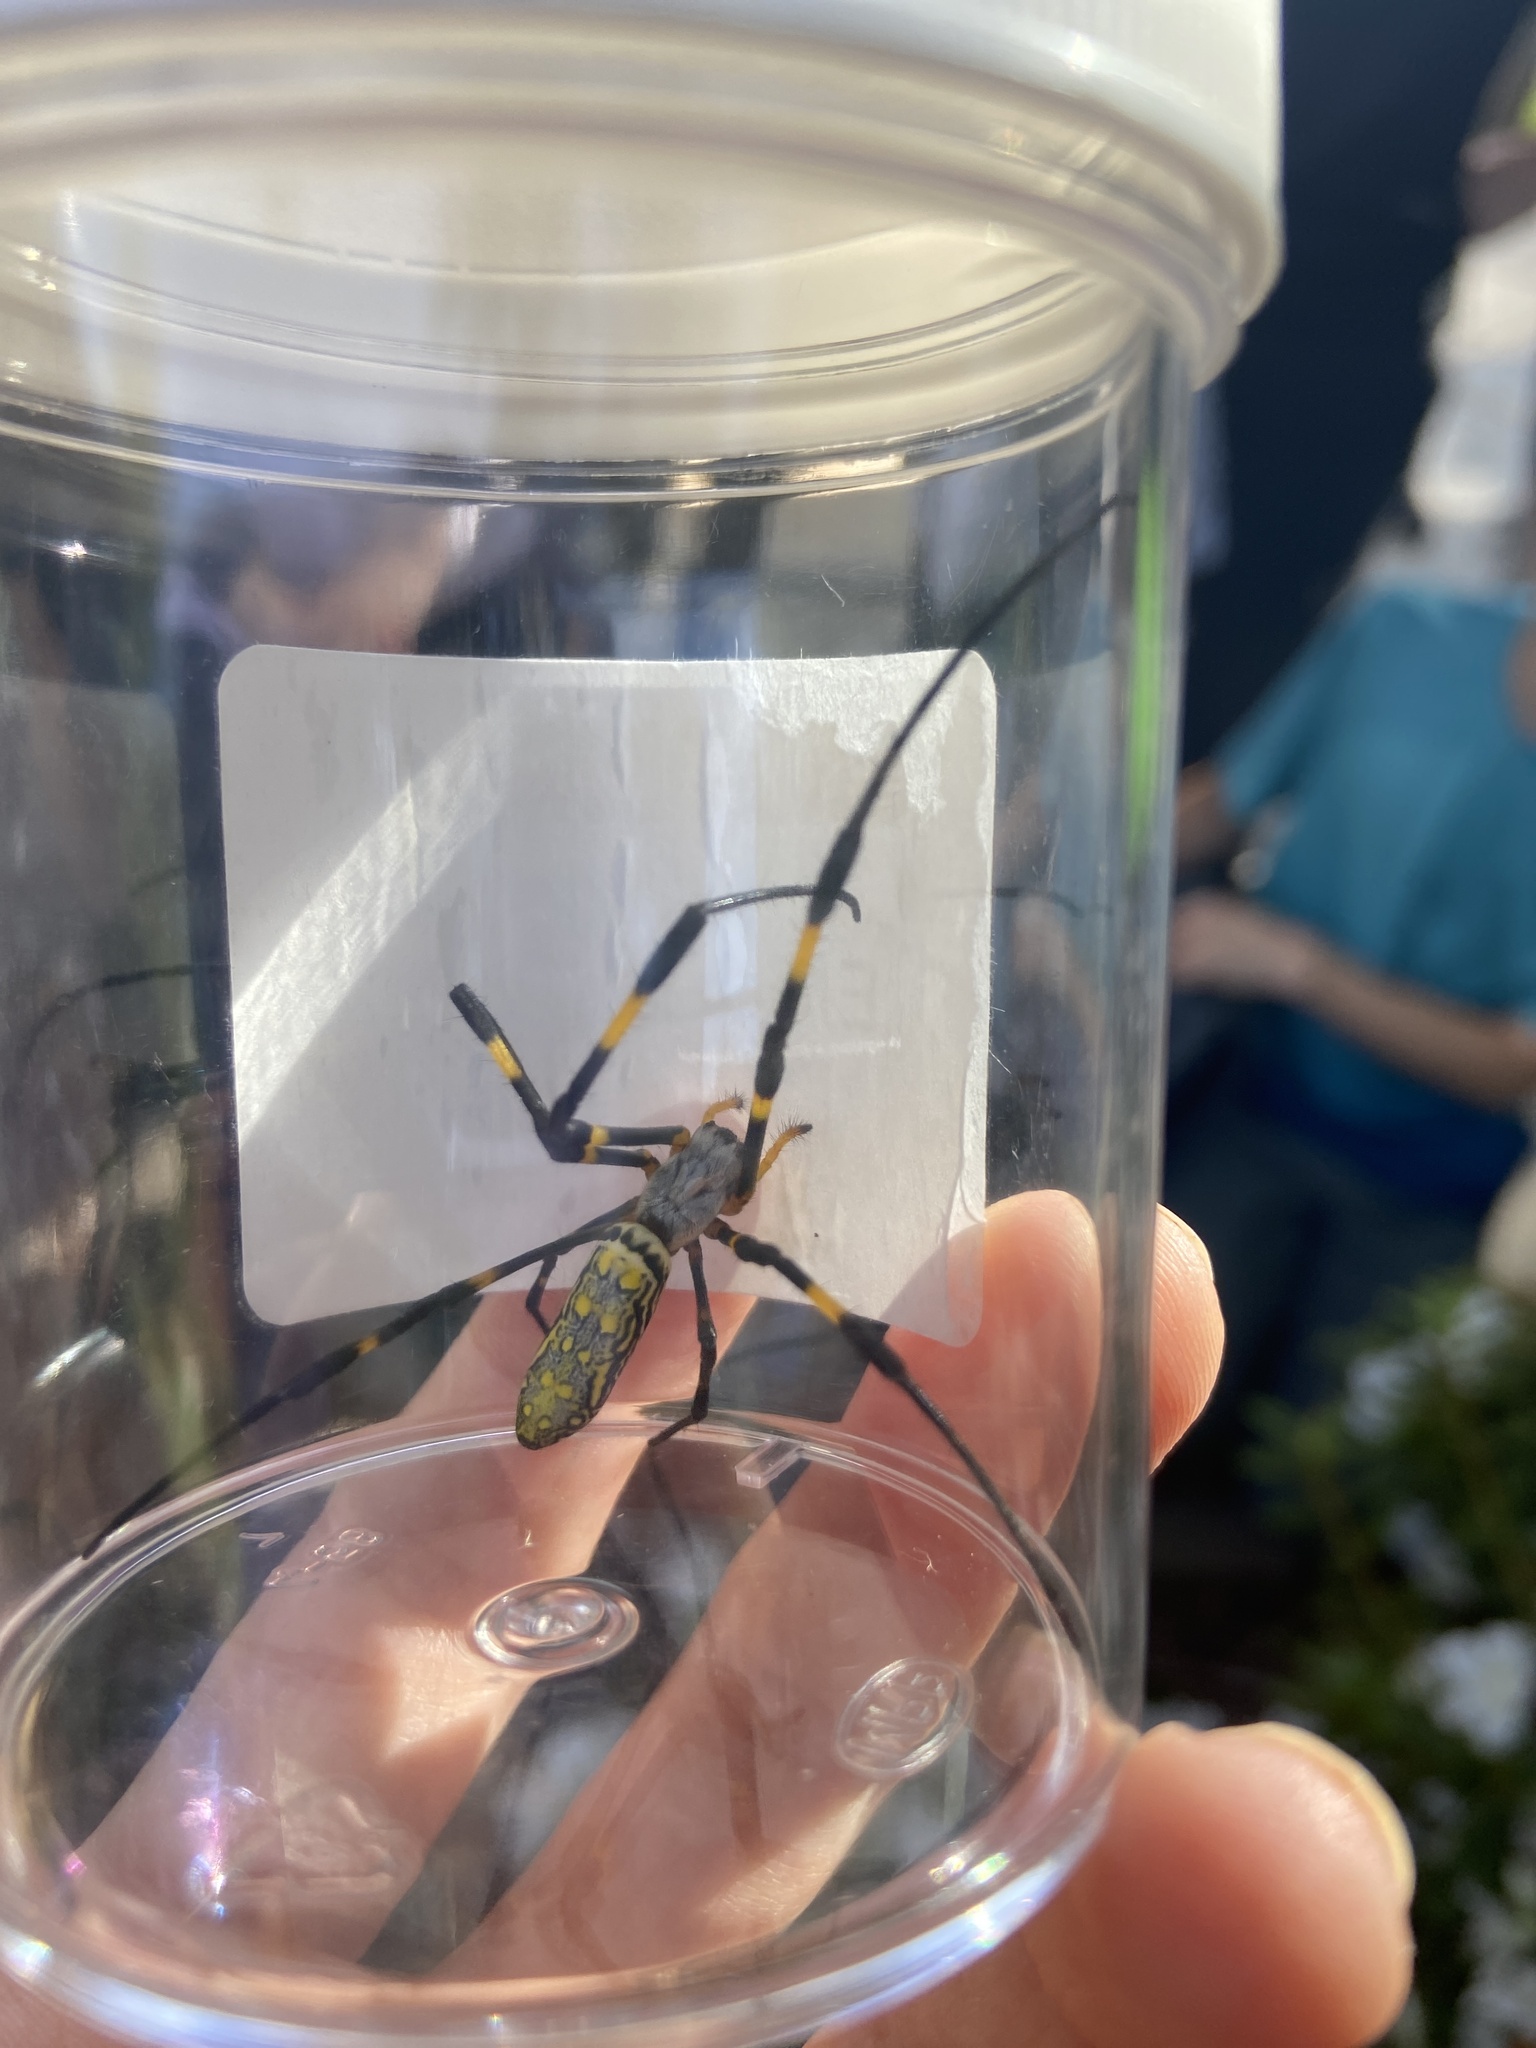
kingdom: Animalia
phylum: Arthropoda
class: Arachnida
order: Araneae
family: Araneidae
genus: Trichonephila
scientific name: Trichonephila clavata
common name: Jorō spider
